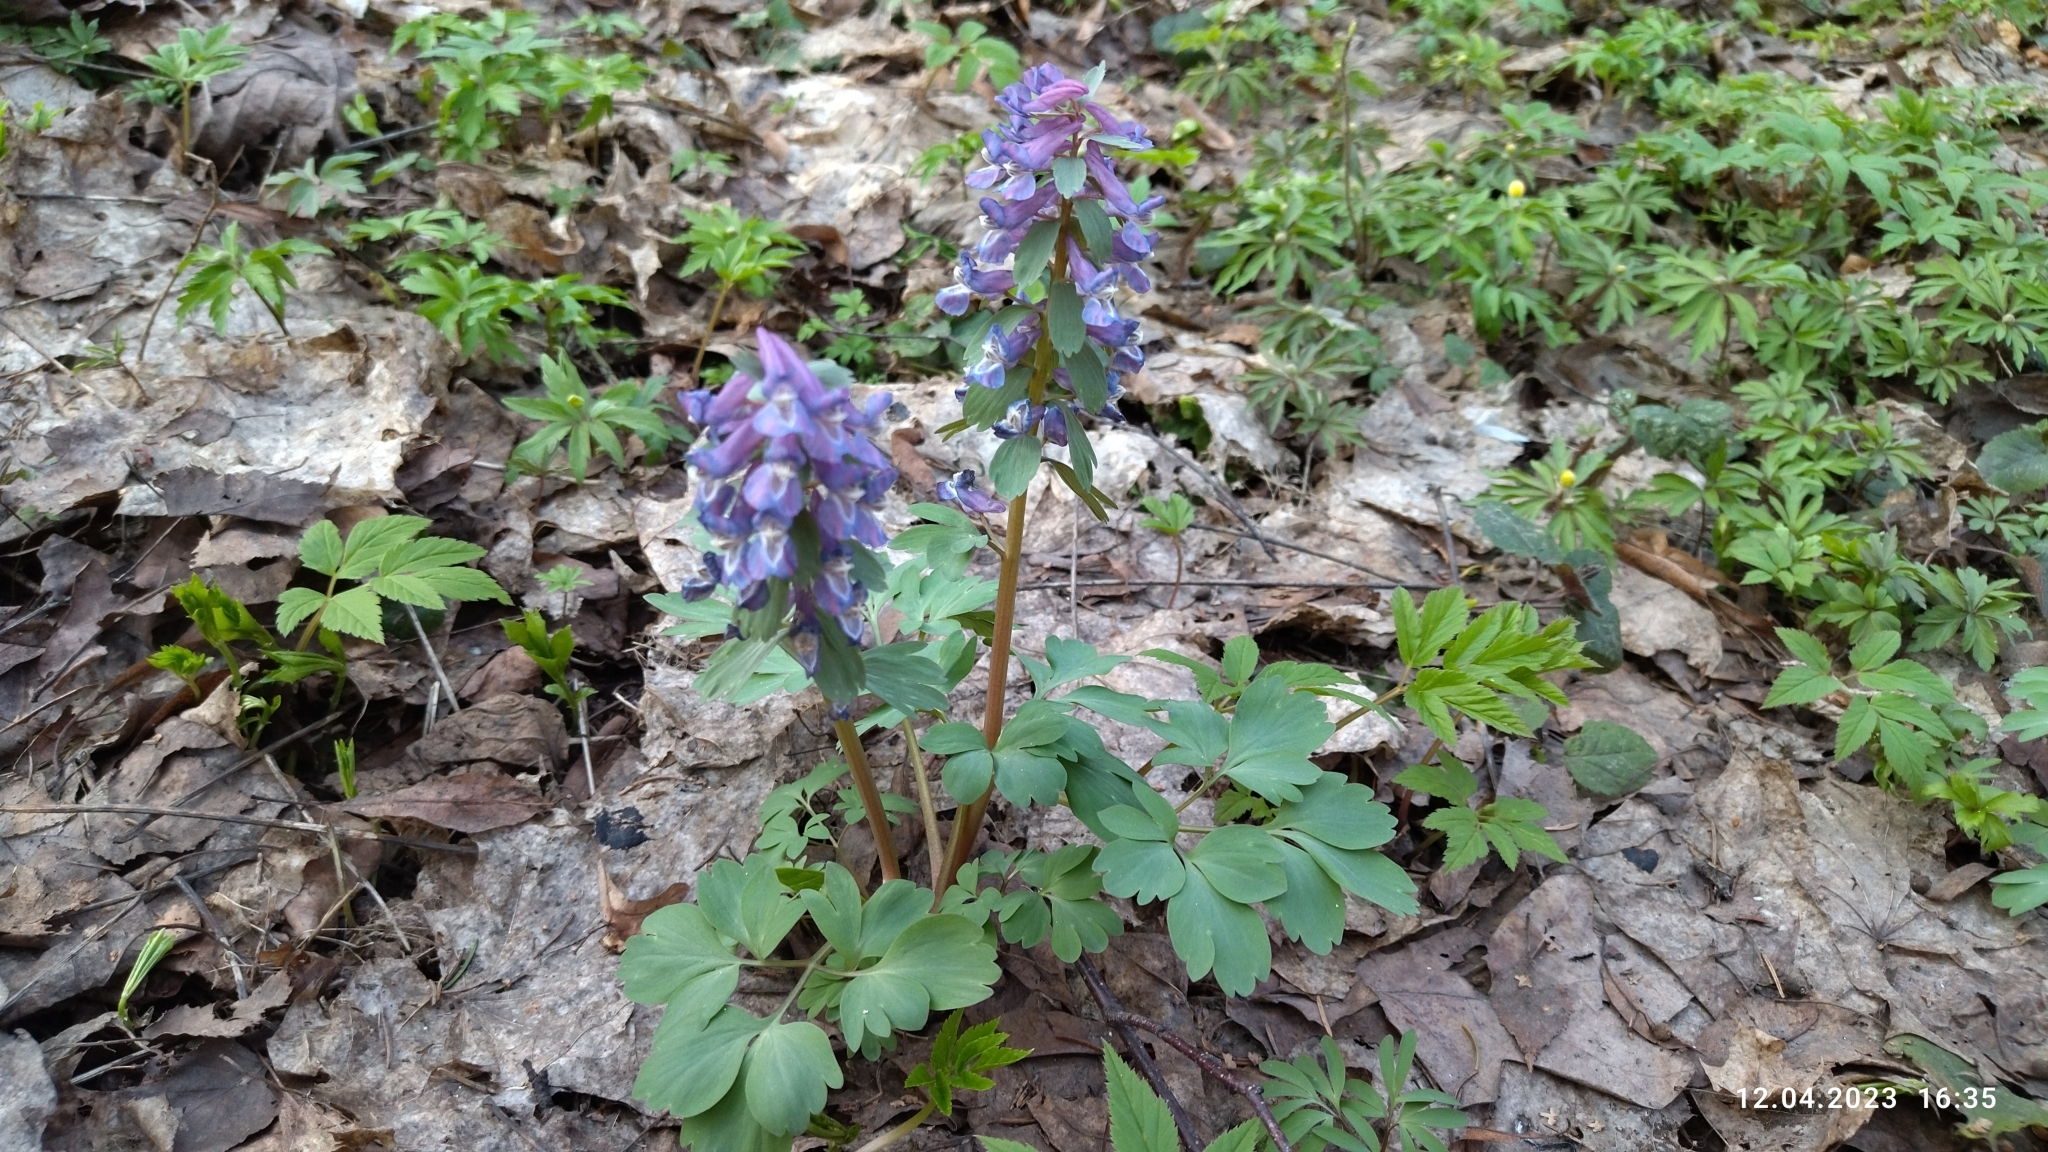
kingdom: Plantae
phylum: Tracheophyta
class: Magnoliopsida
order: Ranunculales
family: Papaveraceae
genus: Corydalis
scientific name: Corydalis solida
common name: Bird-in-a-bush
